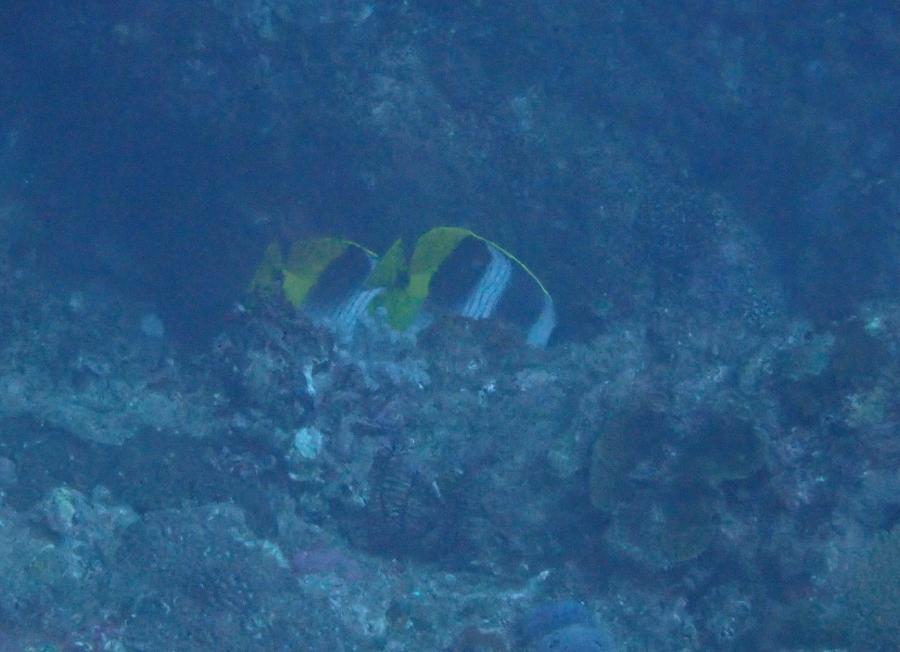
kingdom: Animalia
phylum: Chordata
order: Perciformes
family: Chaetodontidae
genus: Chaetodon
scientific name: Chaetodon ulietensis
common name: Pacific double-saddle butterflyfish
